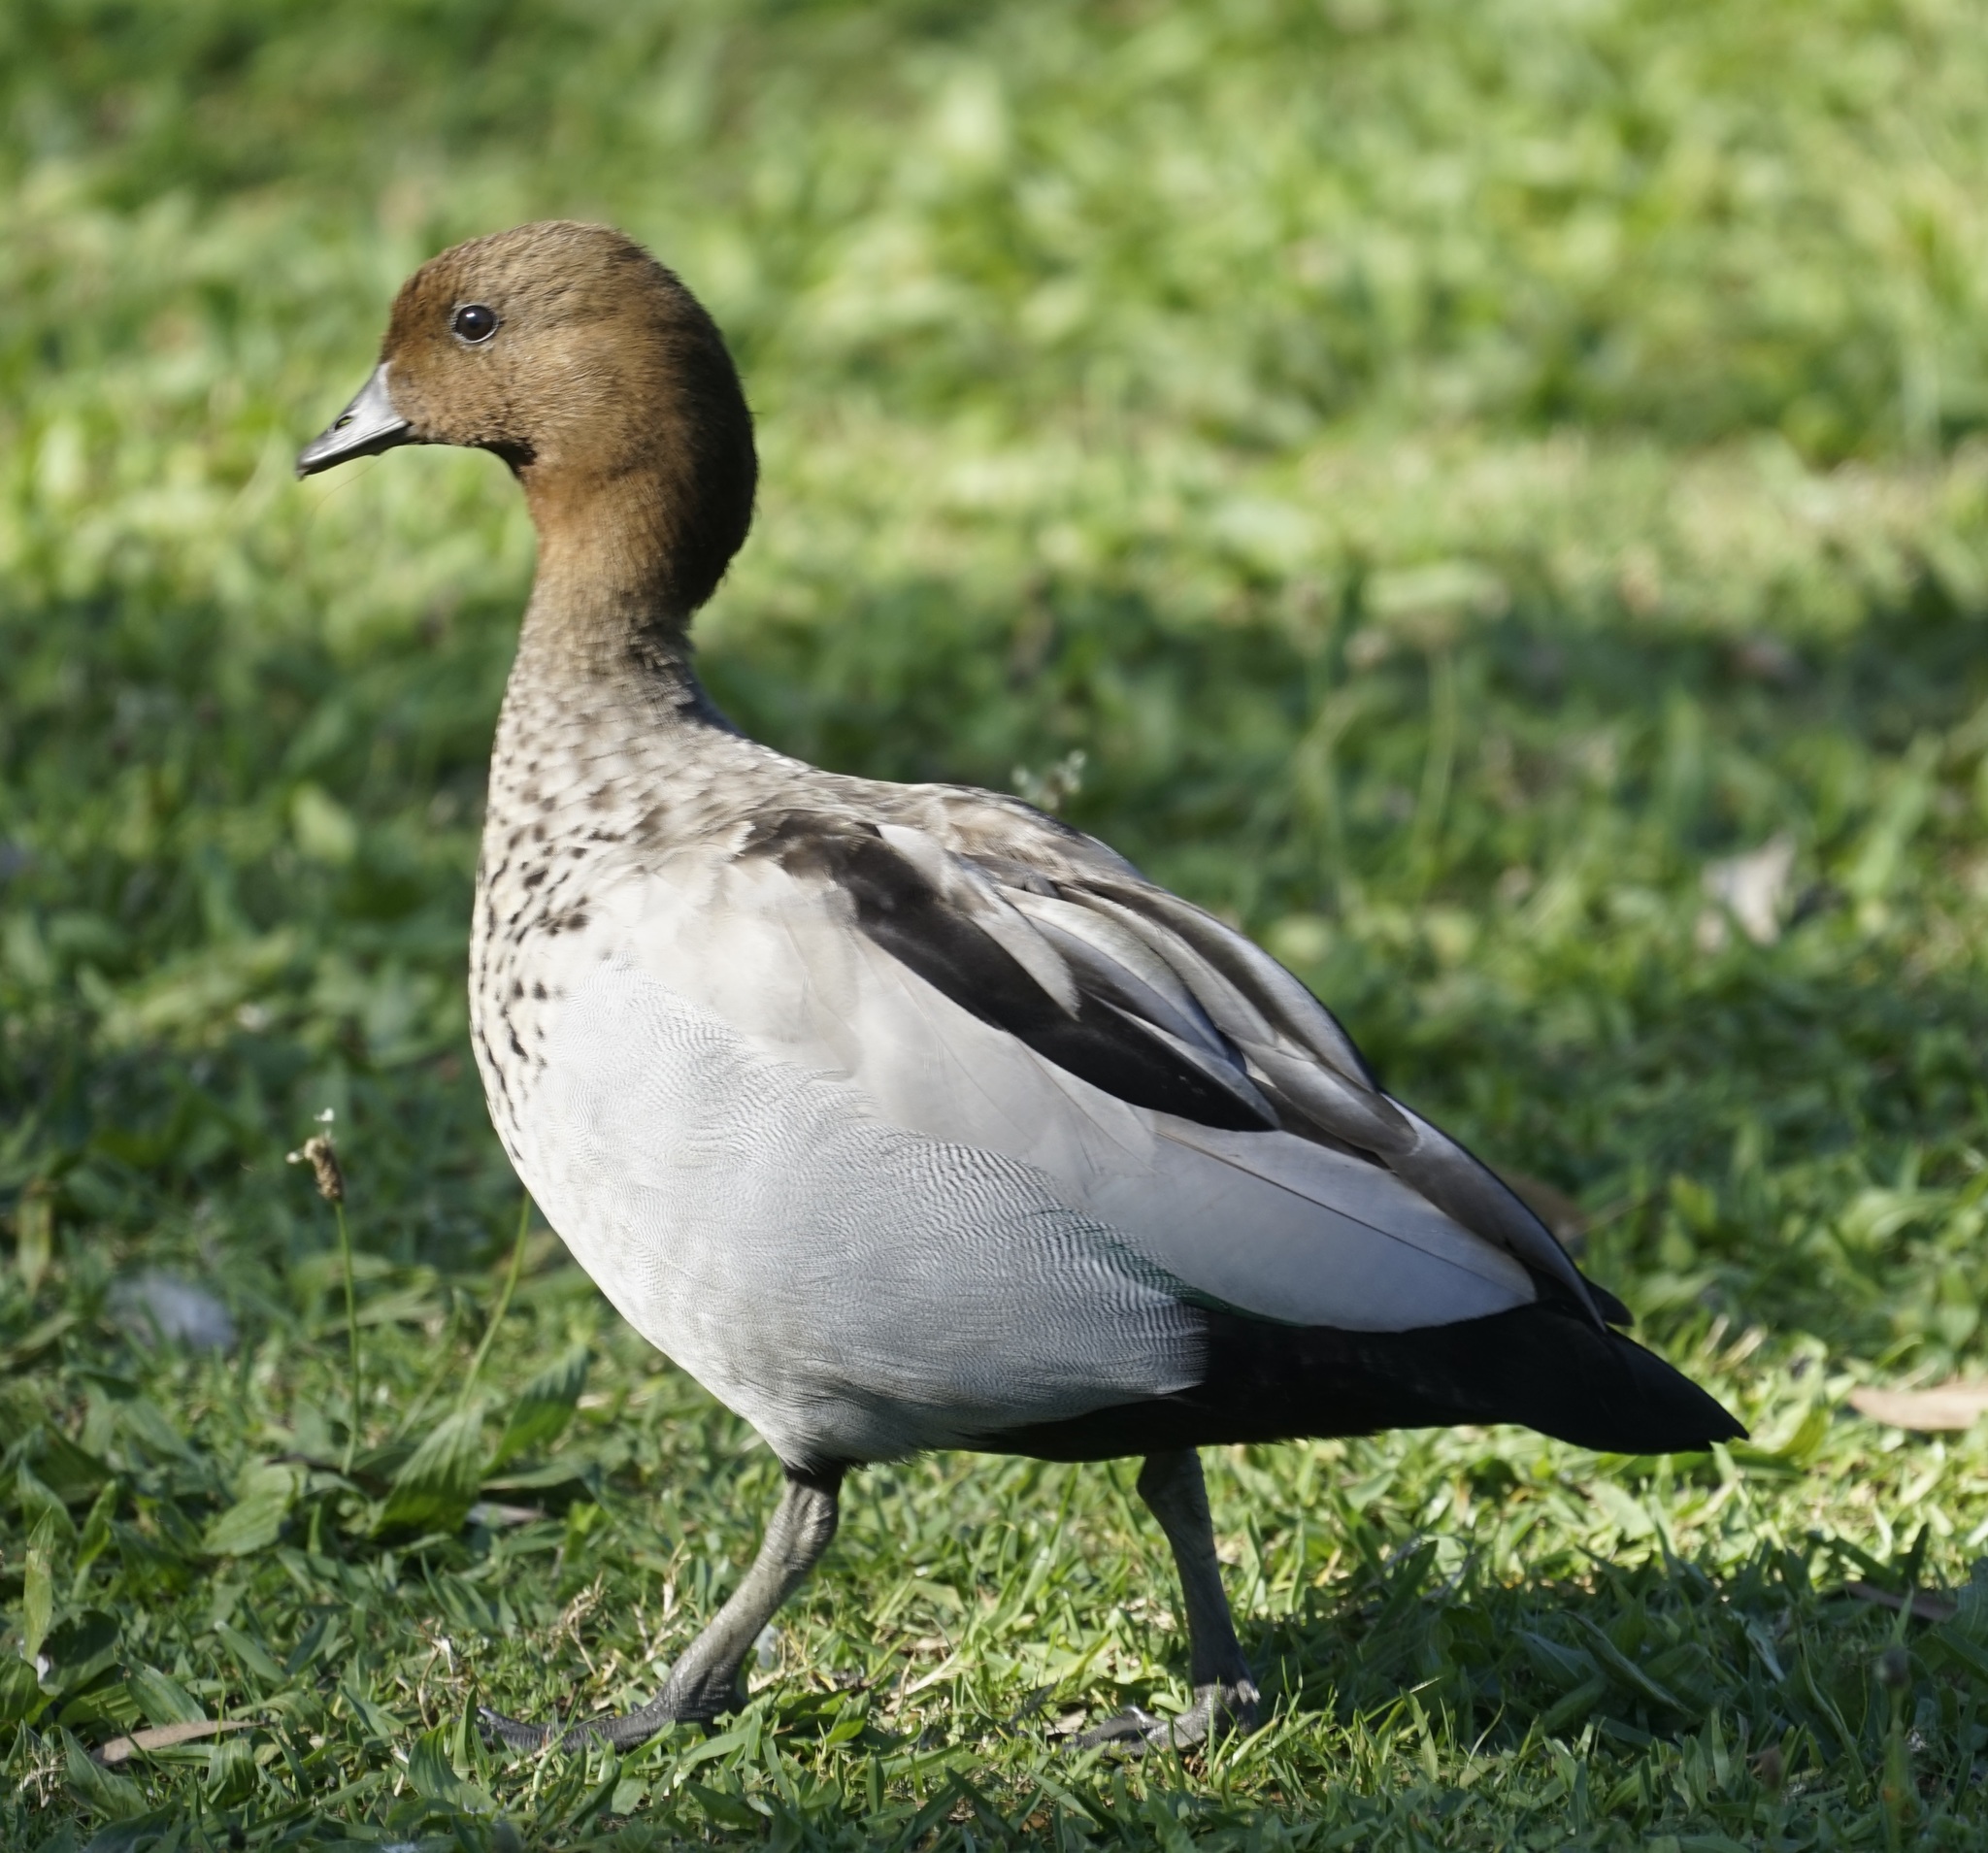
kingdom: Animalia
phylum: Chordata
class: Aves
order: Anseriformes
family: Anatidae
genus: Chenonetta
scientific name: Chenonetta jubata
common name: Maned duck
